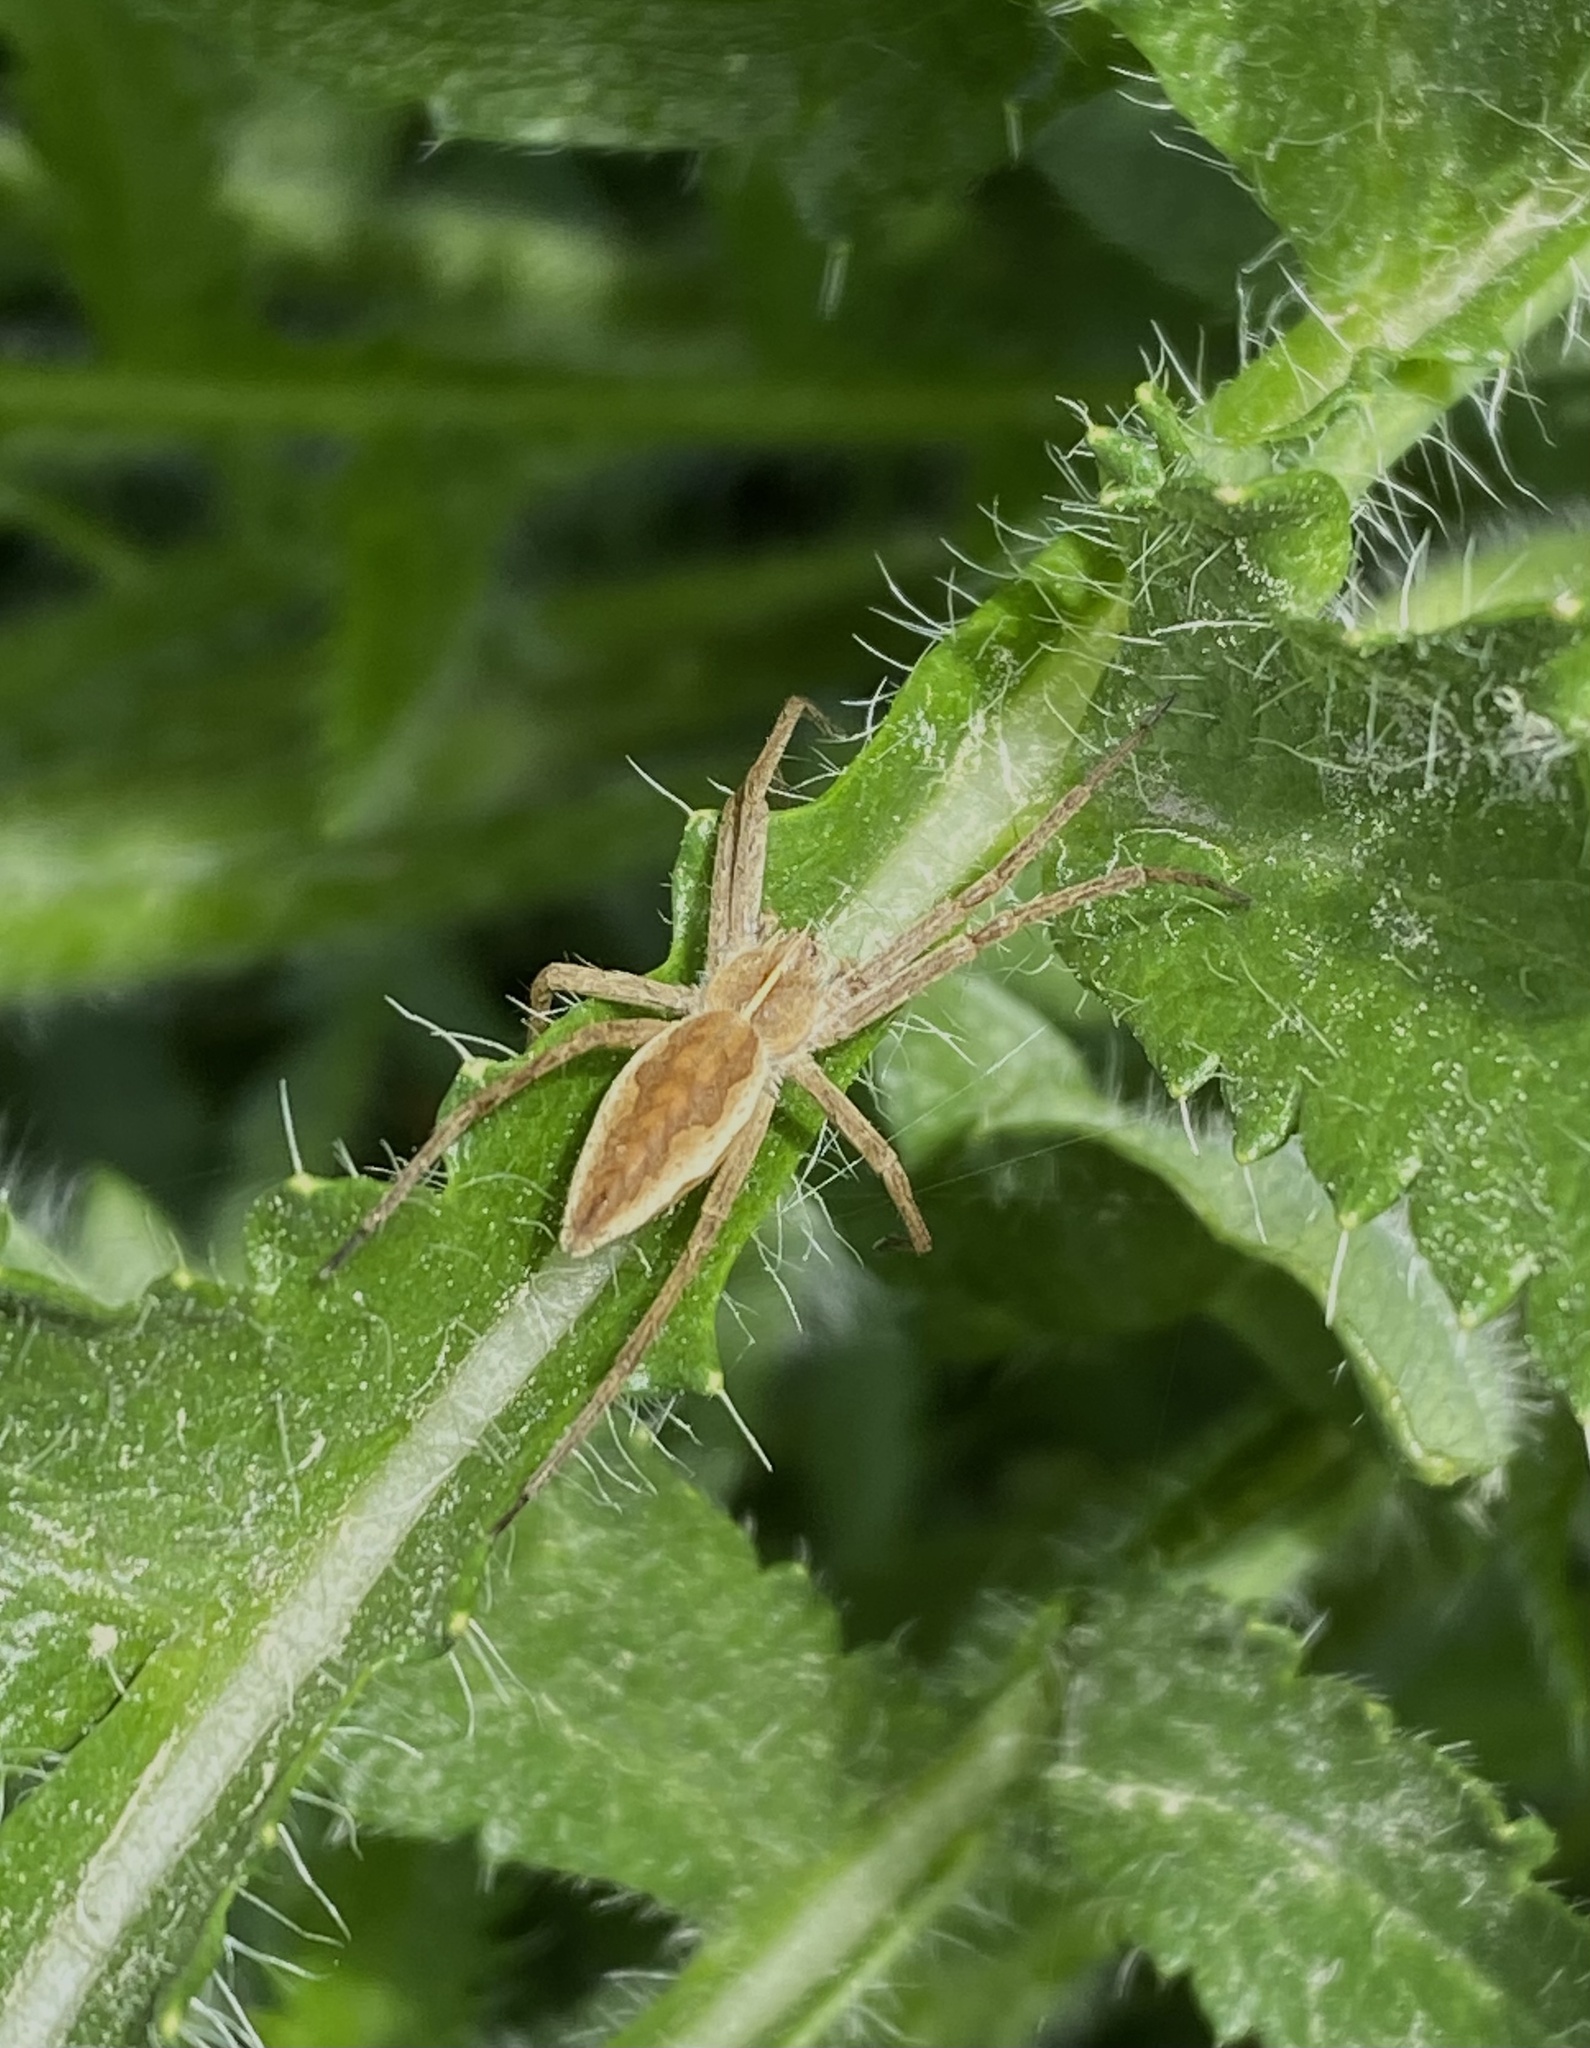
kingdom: Animalia
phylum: Arthropoda
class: Arachnida
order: Araneae
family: Pisauridae
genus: Pisaura
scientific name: Pisaura
